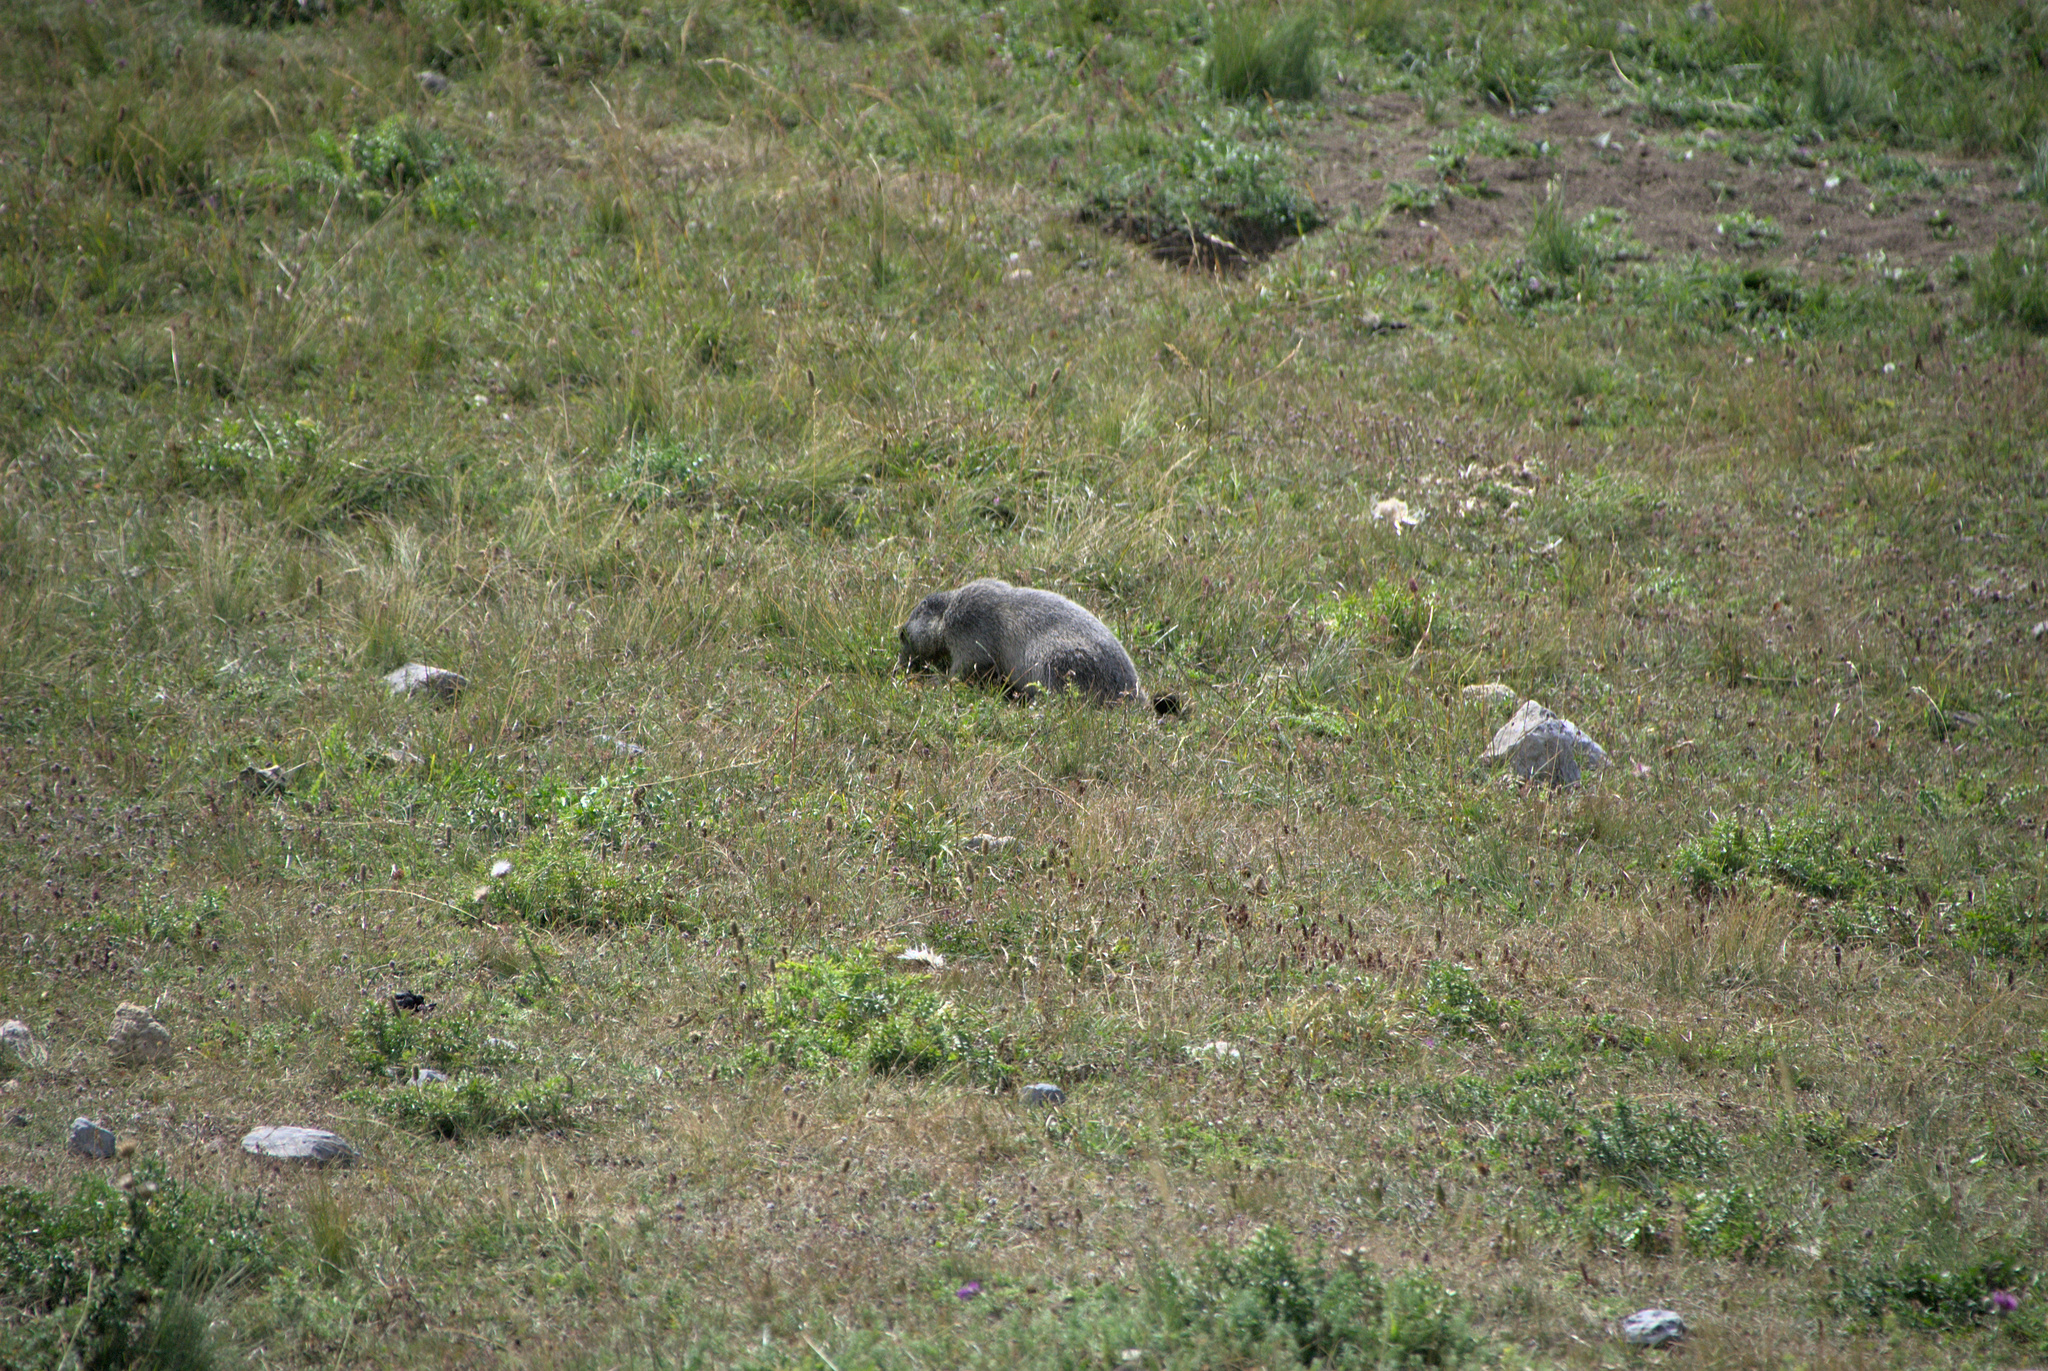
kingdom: Animalia
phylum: Chordata
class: Mammalia
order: Rodentia
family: Sciuridae
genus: Marmota
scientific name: Marmota marmota
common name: Alpine marmot
